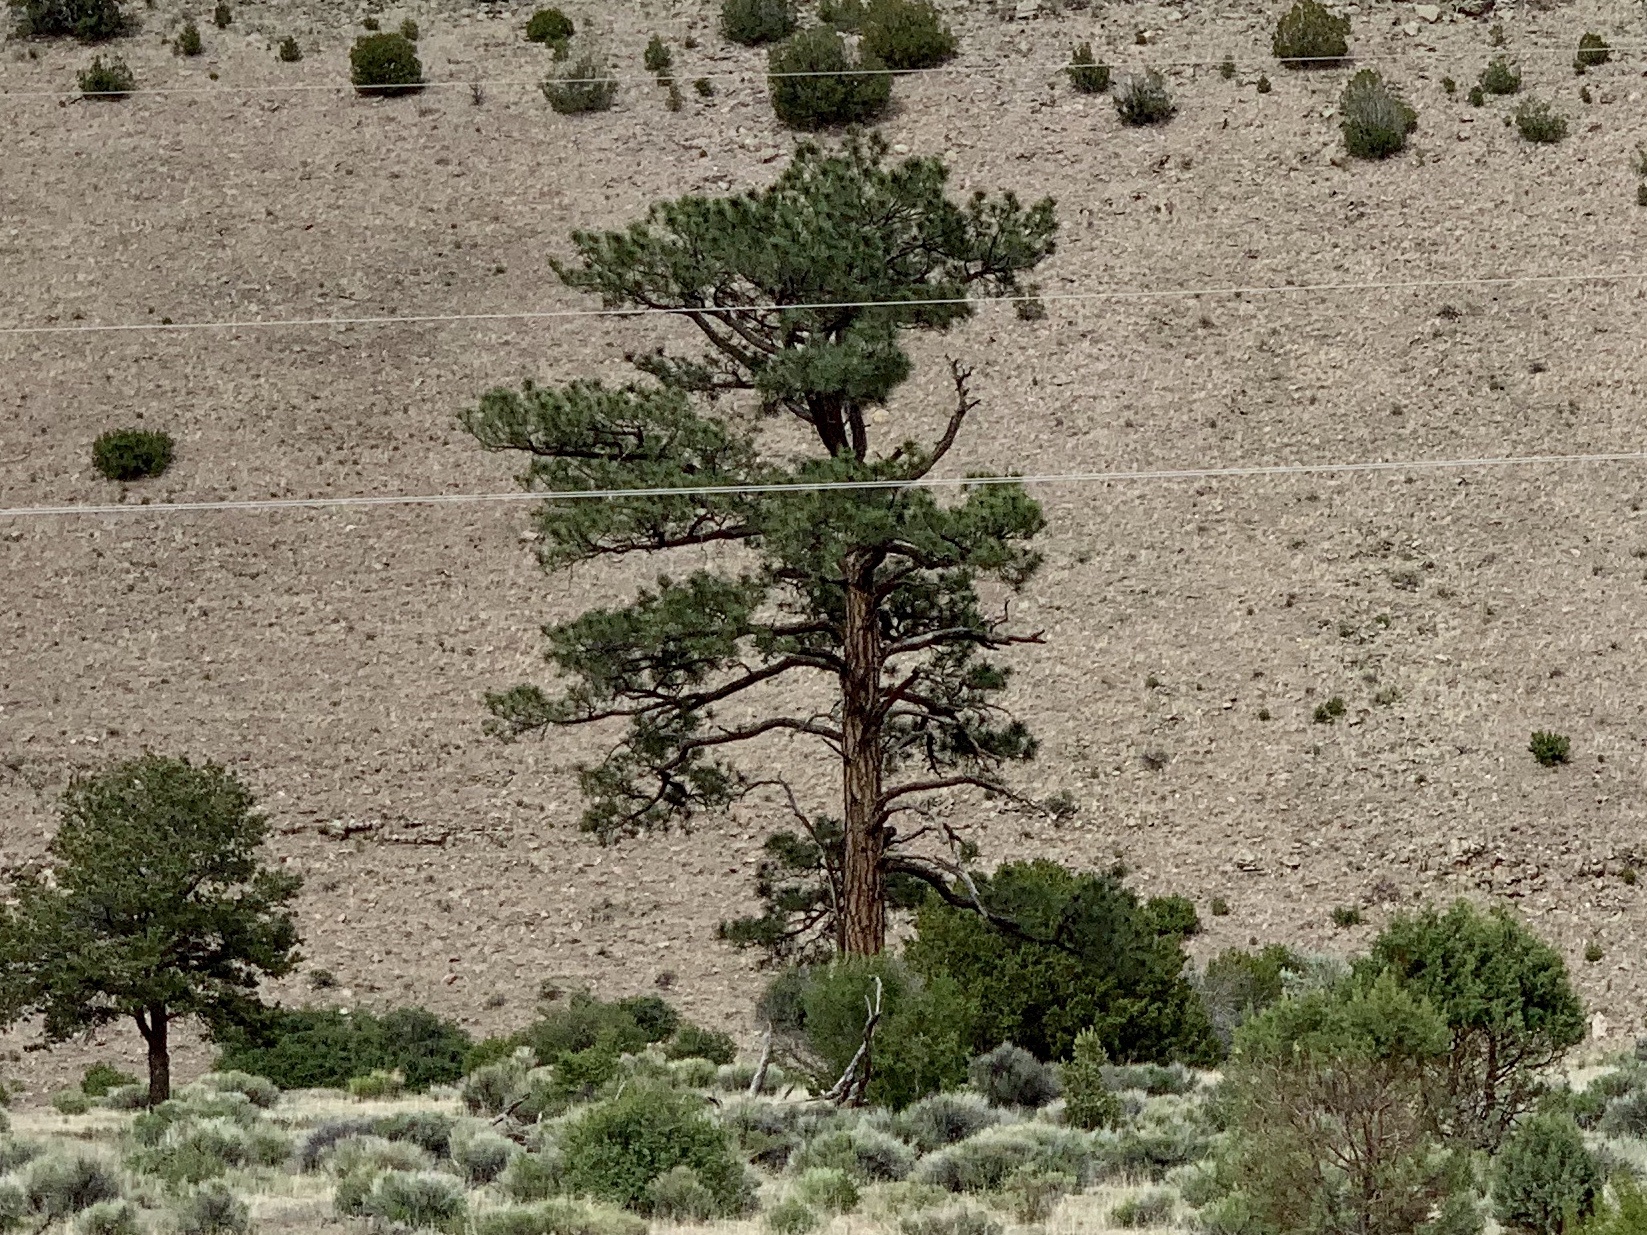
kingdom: Plantae
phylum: Tracheophyta
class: Pinopsida
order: Pinales
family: Pinaceae
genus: Pinus
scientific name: Pinus ponderosa
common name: Western yellow-pine
